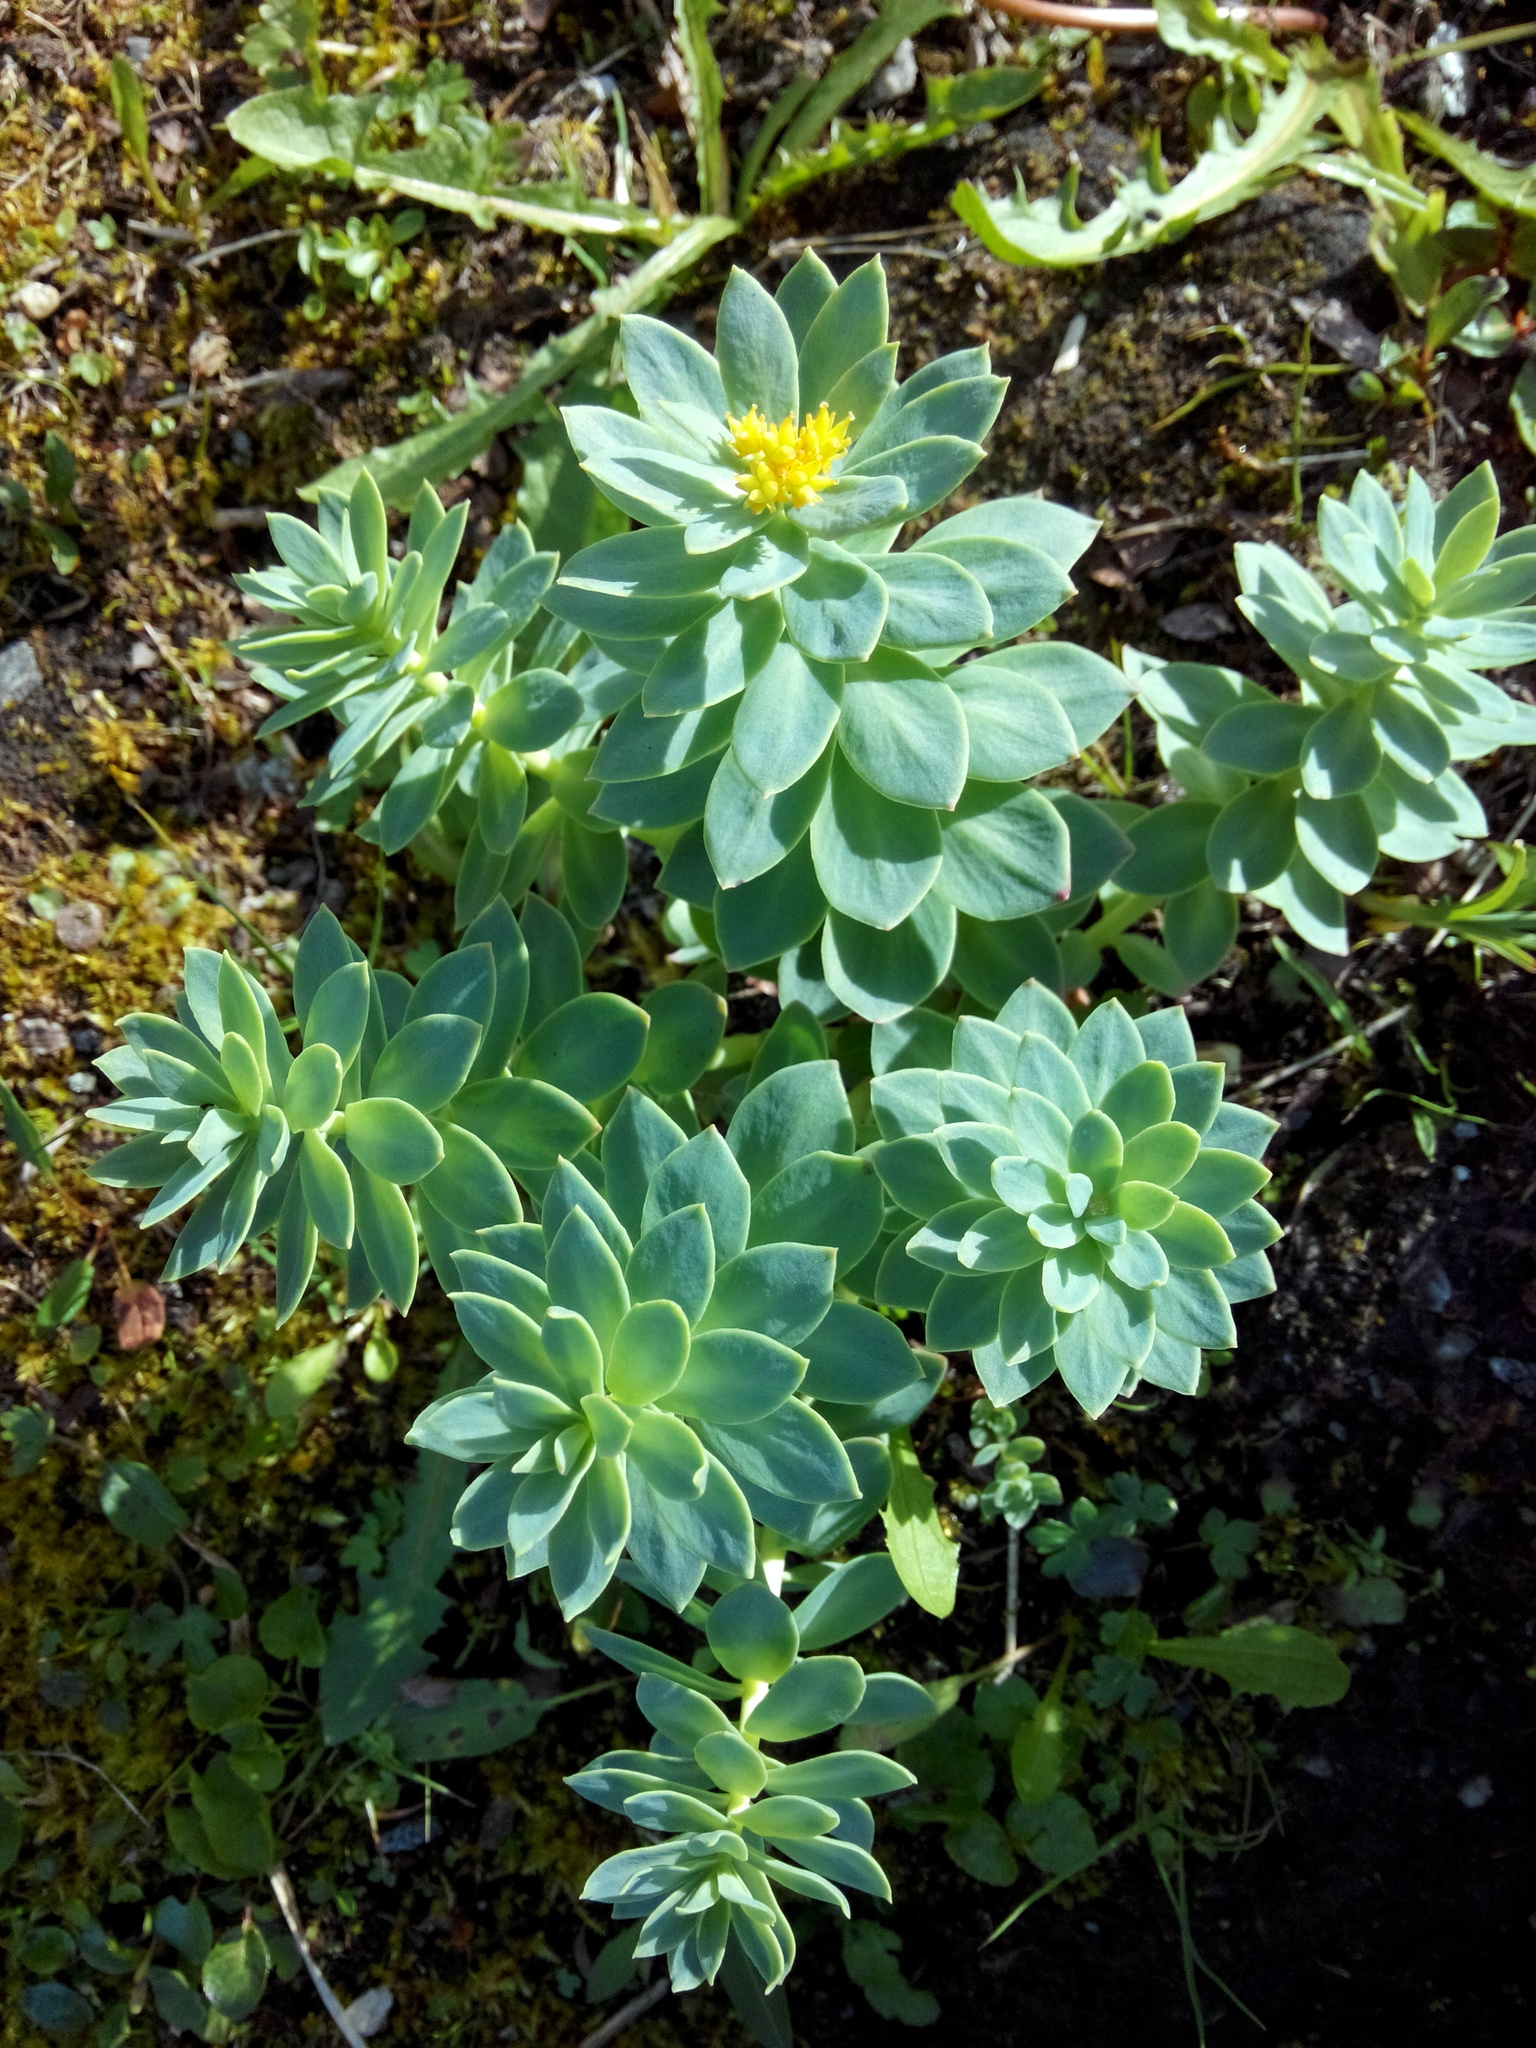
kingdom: Plantae
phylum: Tracheophyta
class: Magnoliopsida
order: Saxifragales
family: Crassulaceae
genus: Rhodiola
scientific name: Rhodiola rosea
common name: Roseroot
